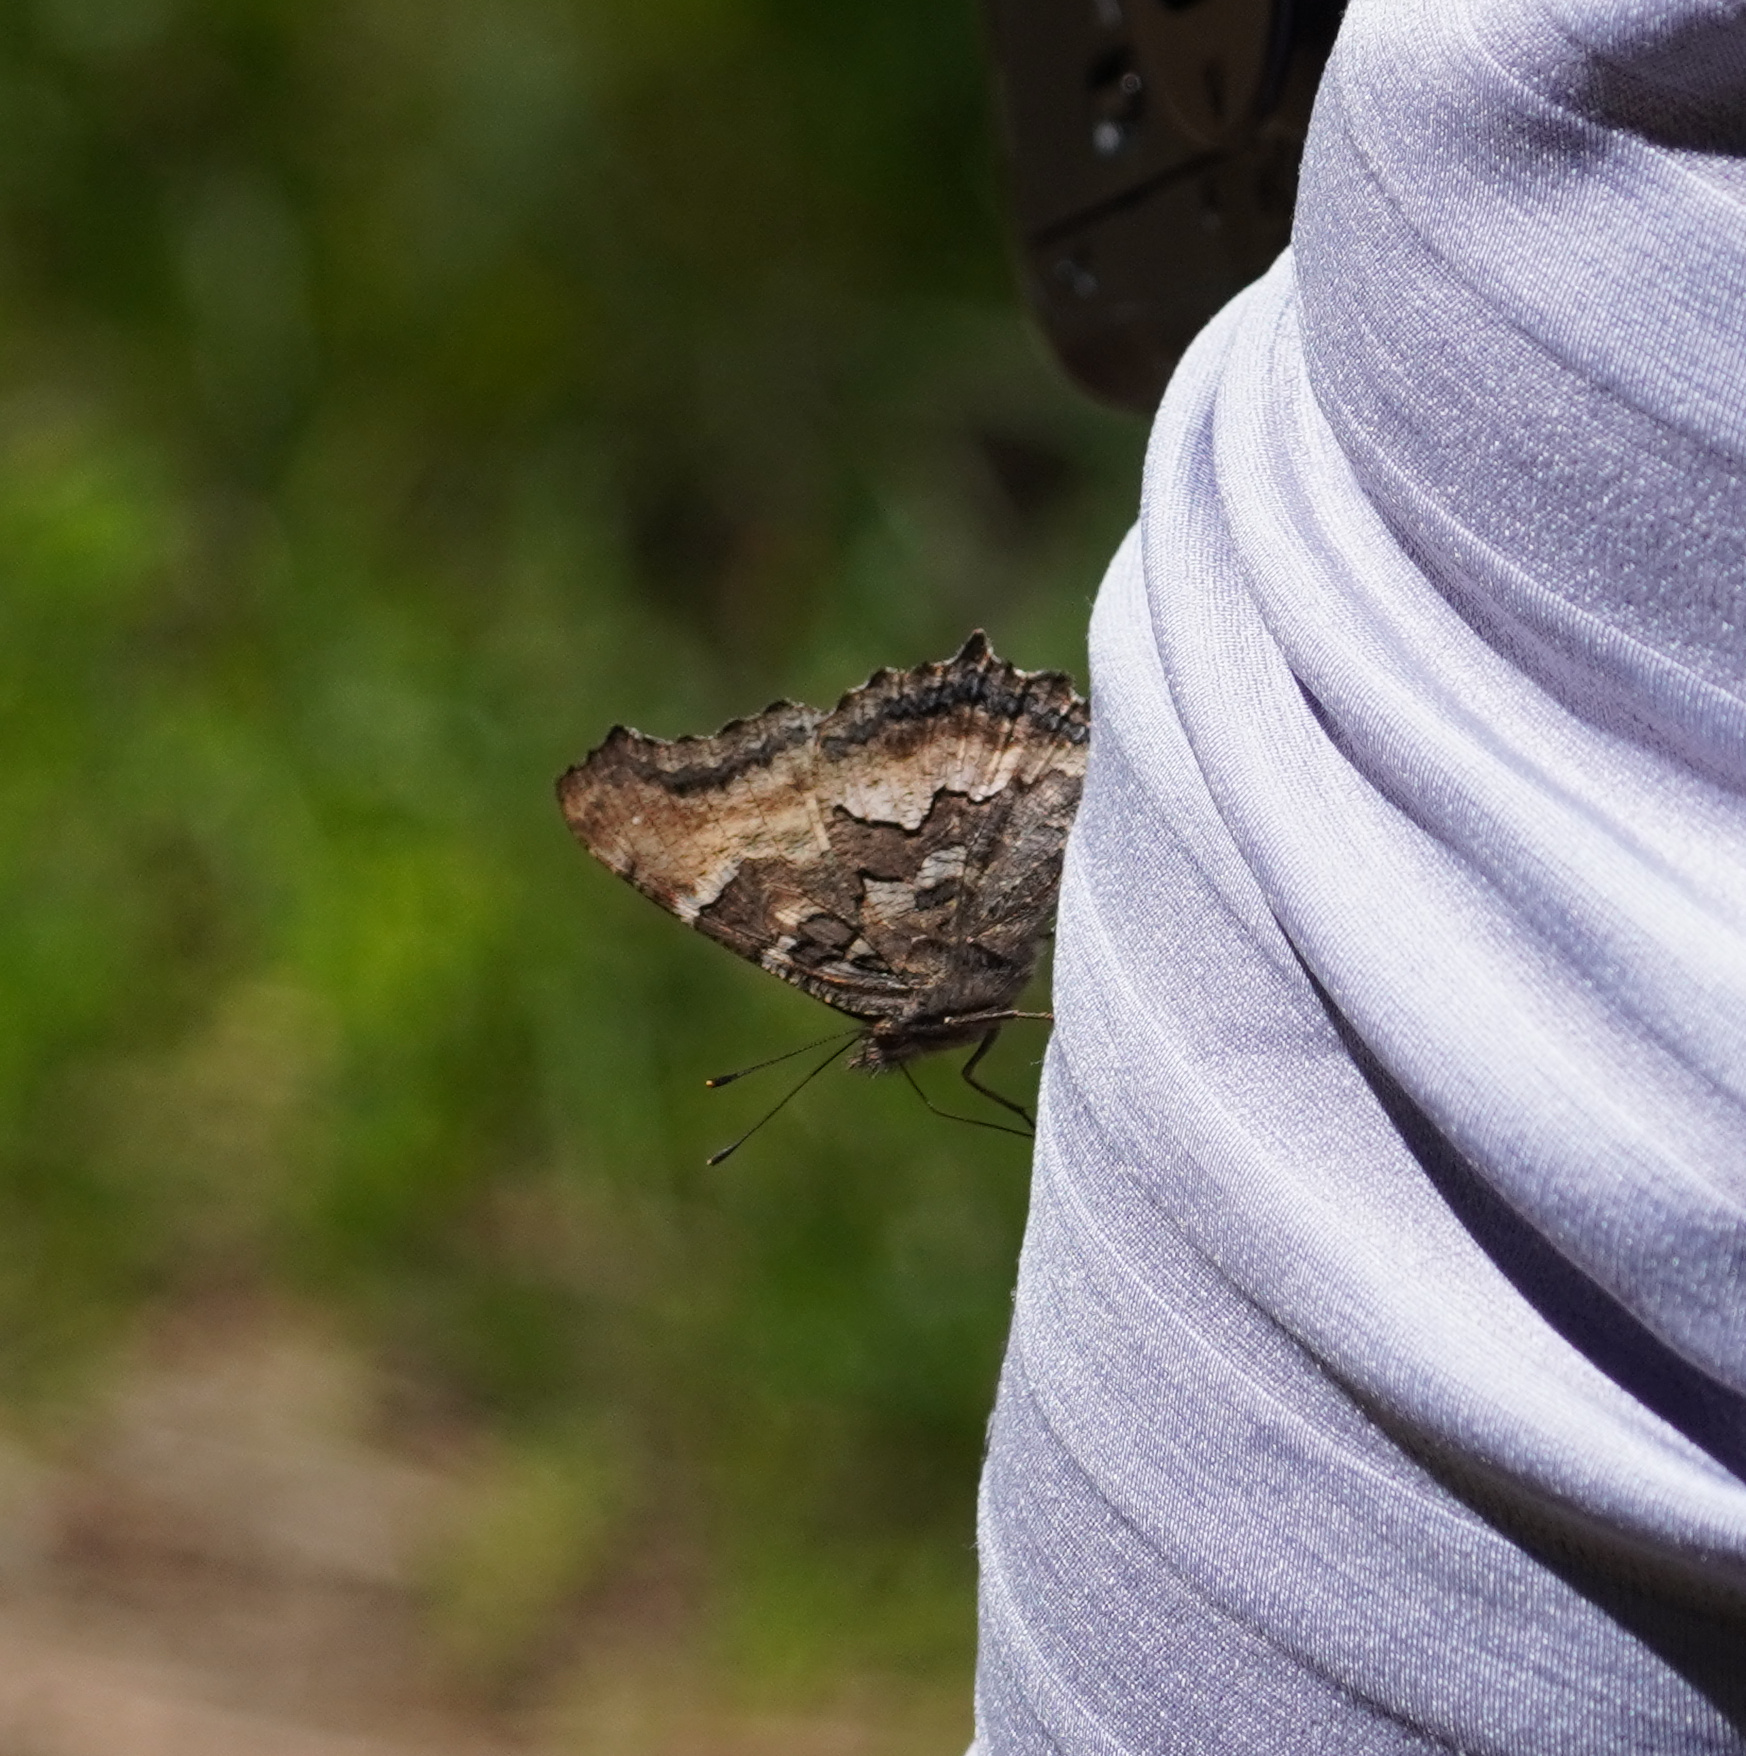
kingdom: Animalia
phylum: Arthropoda
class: Insecta
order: Lepidoptera
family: Nymphalidae
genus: Nymphalis
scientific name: Nymphalis californica
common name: California tortoiseshell
